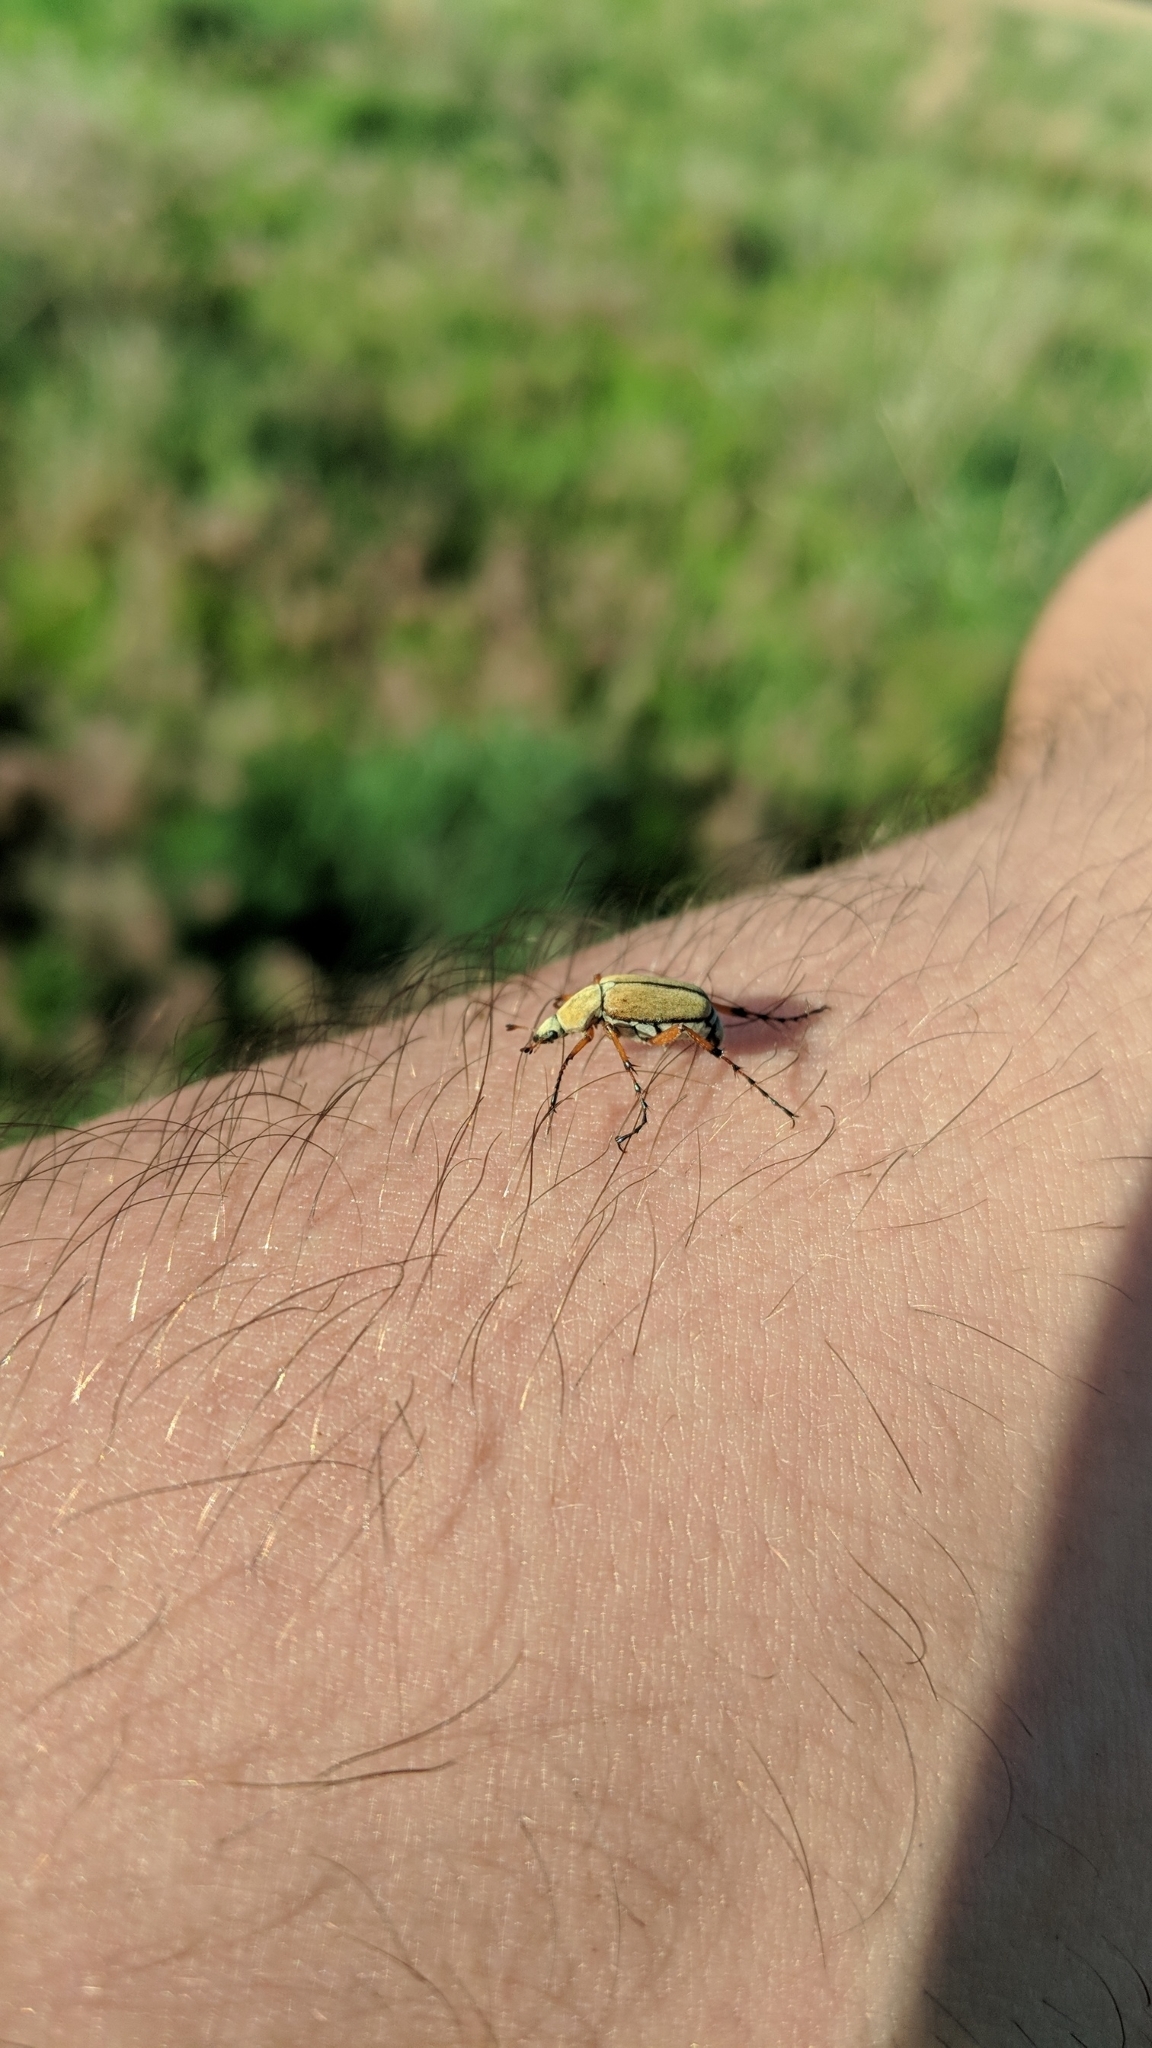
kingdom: Animalia
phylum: Arthropoda
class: Insecta
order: Coleoptera
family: Scarabaeidae
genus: Macrodactylus
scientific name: Macrodactylus subspinosus
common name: American rose chafer
